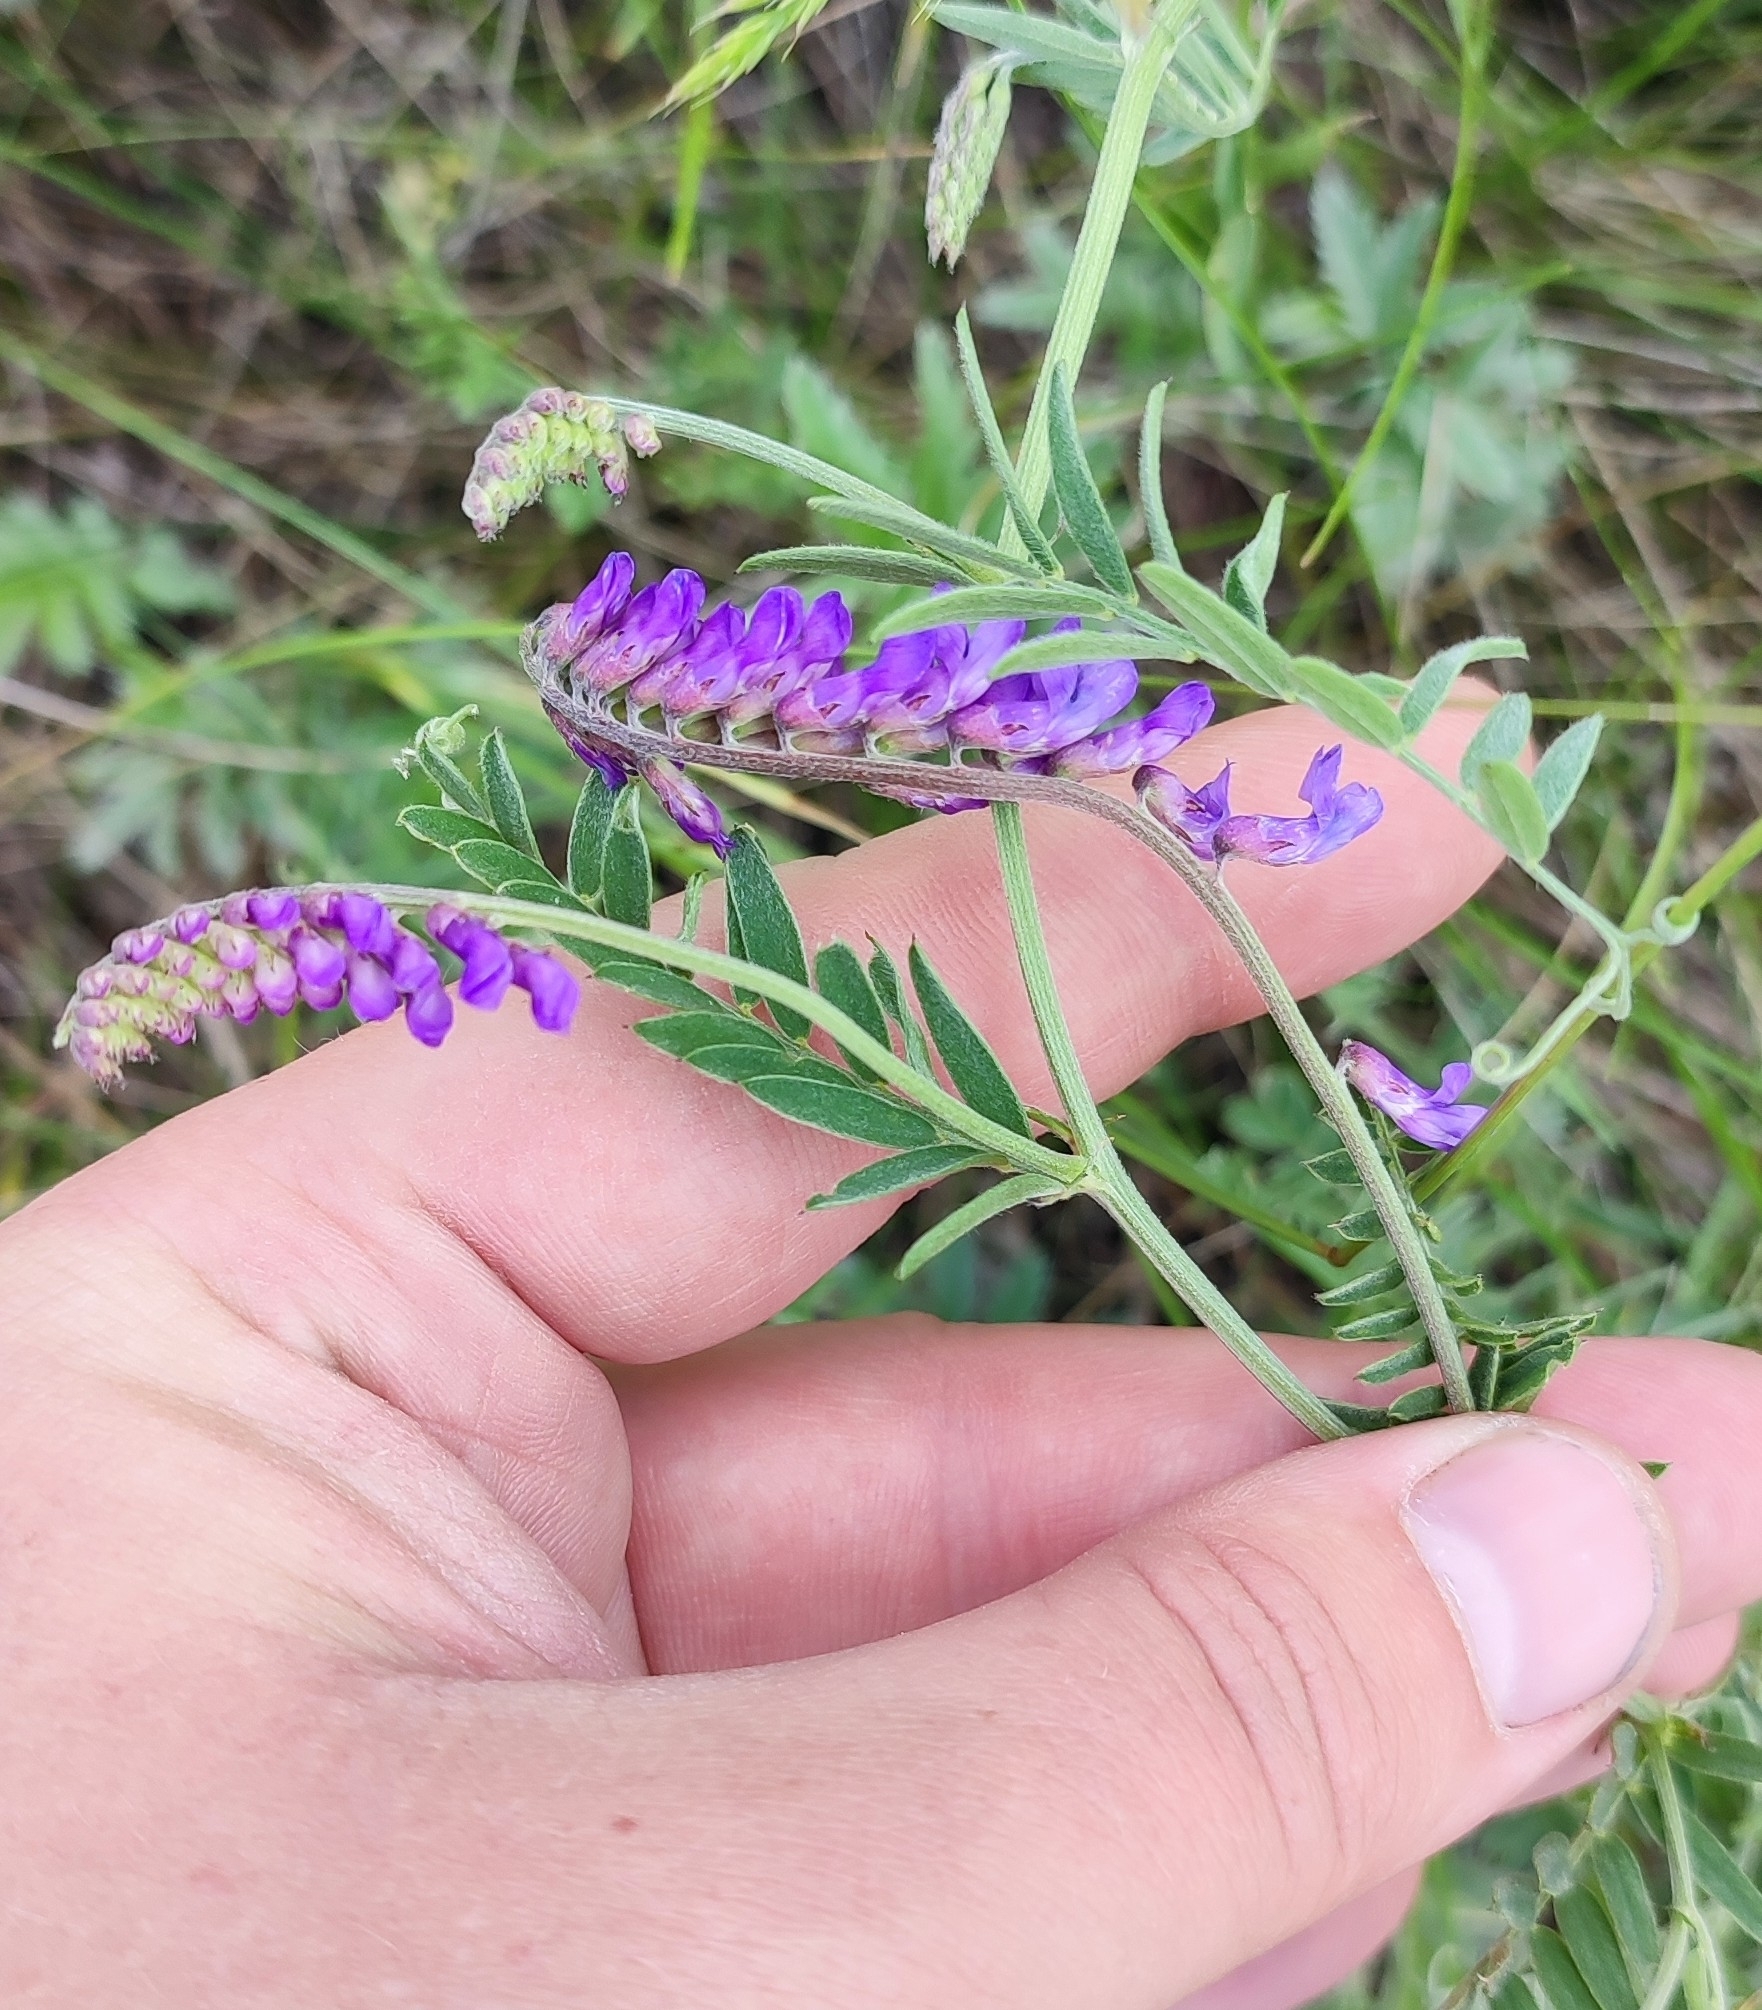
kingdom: Plantae
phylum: Tracheophyta
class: Magnoliopsida
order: Fabales
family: Fabaceae
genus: Vicia
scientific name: Vicia cracca
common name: Bird vetch
